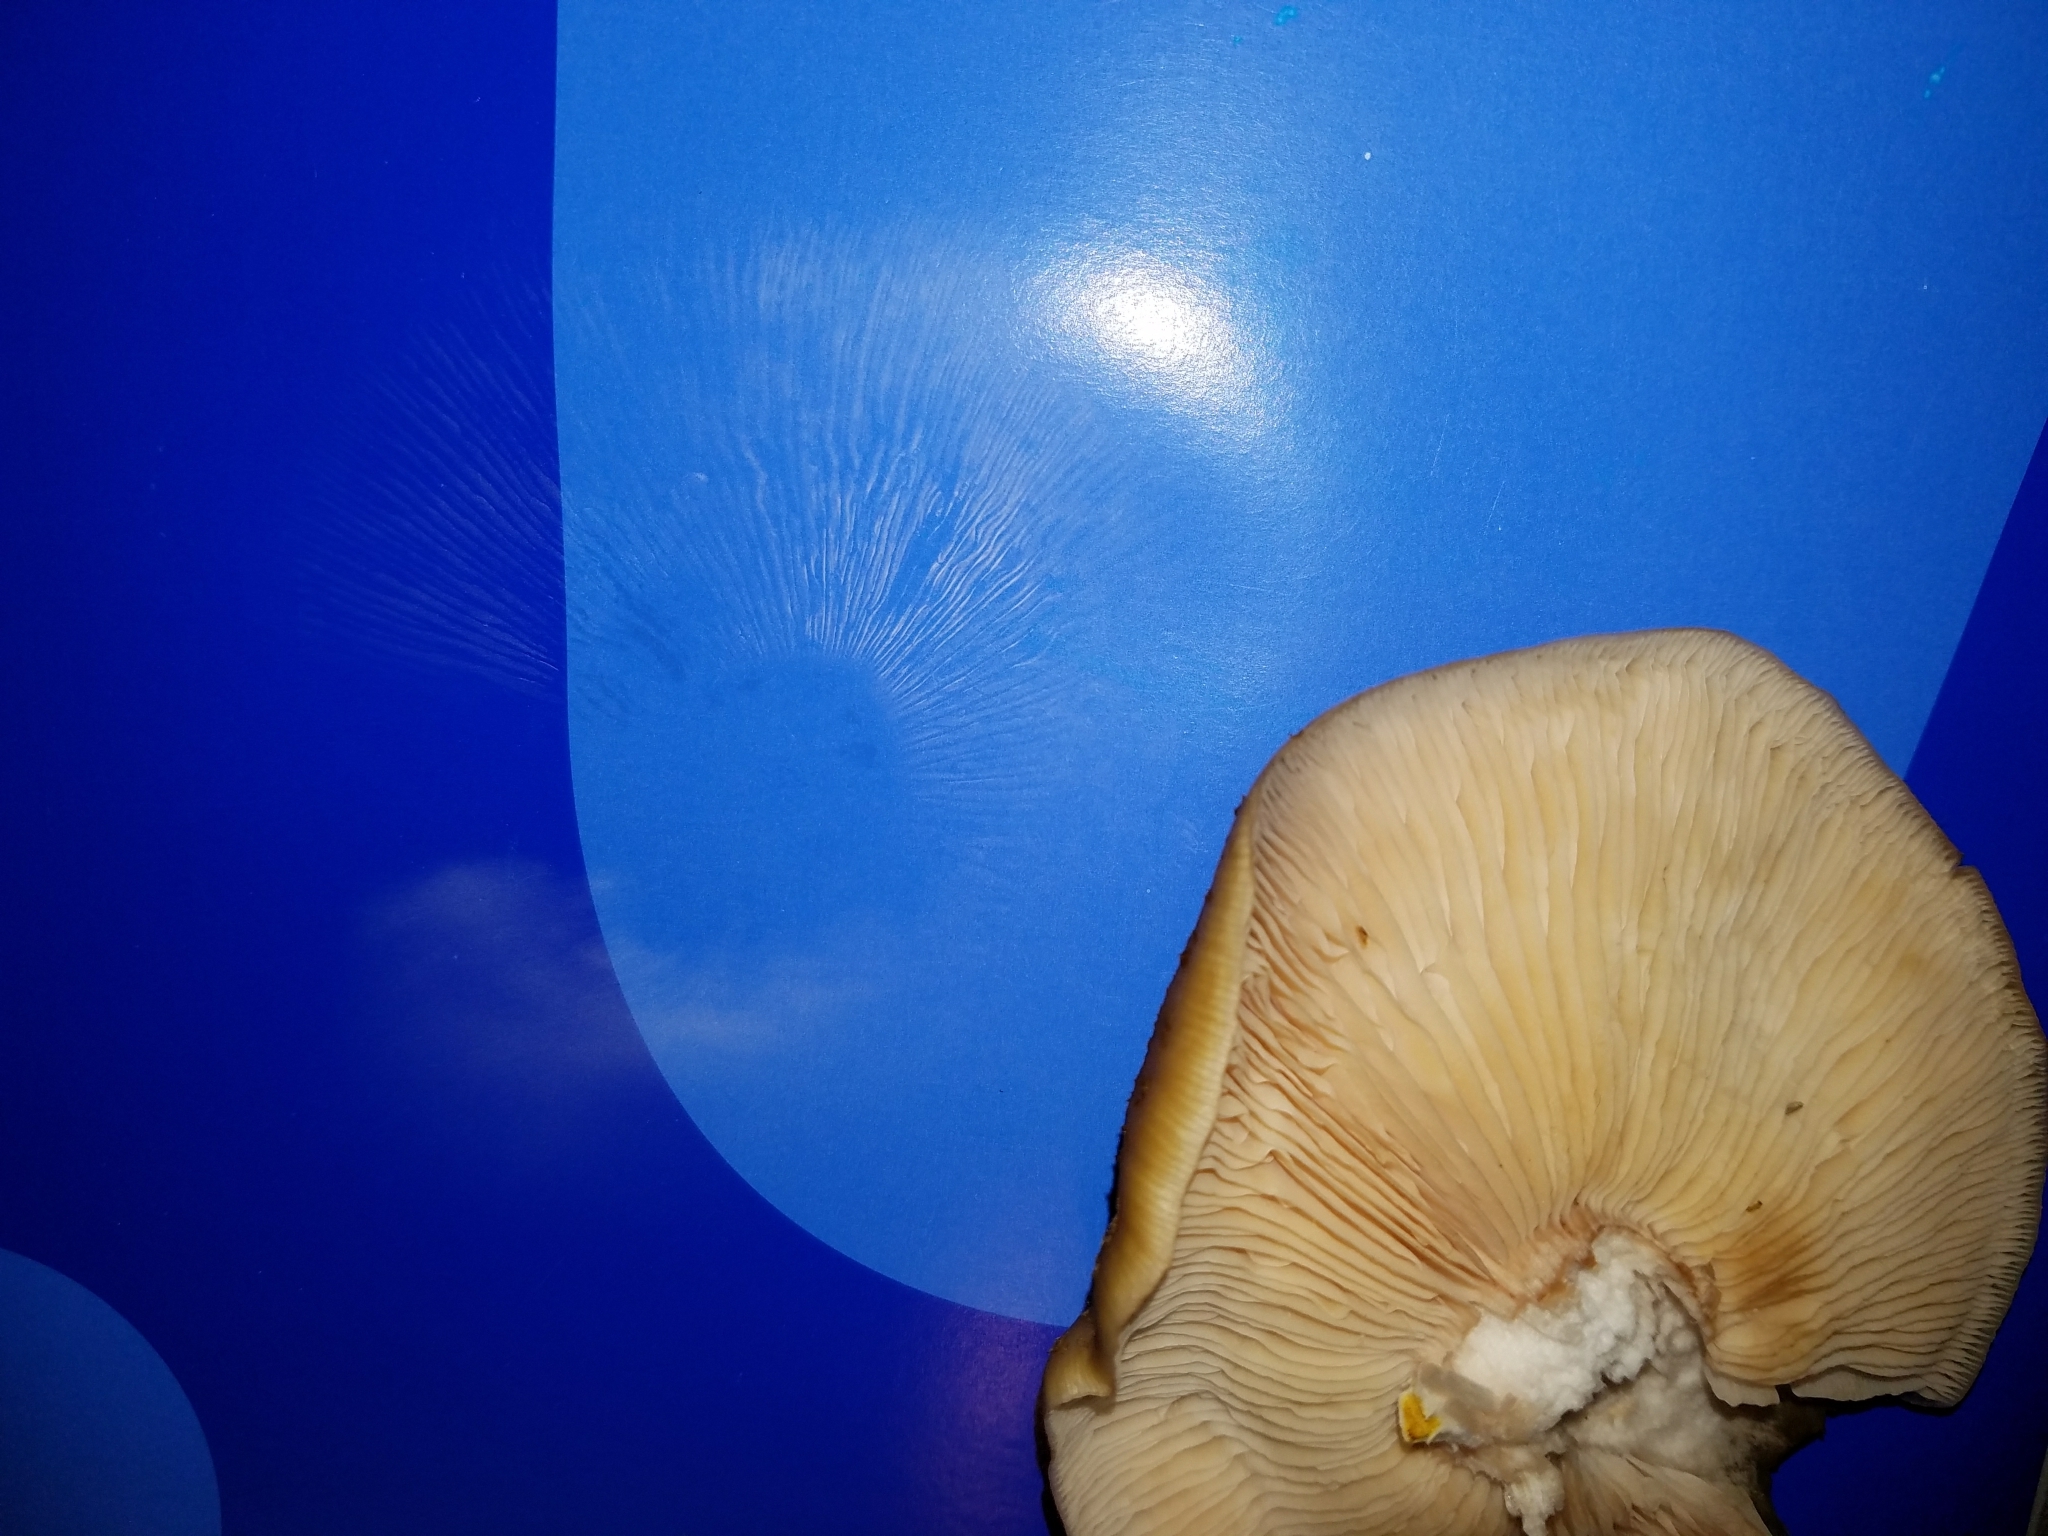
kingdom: Fungi
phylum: Basidiomycota
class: Agaricomycetes
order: Agaricales
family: Physalacriaceae
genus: Armillaria
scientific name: Armillaria mellea
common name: Honey fungus
